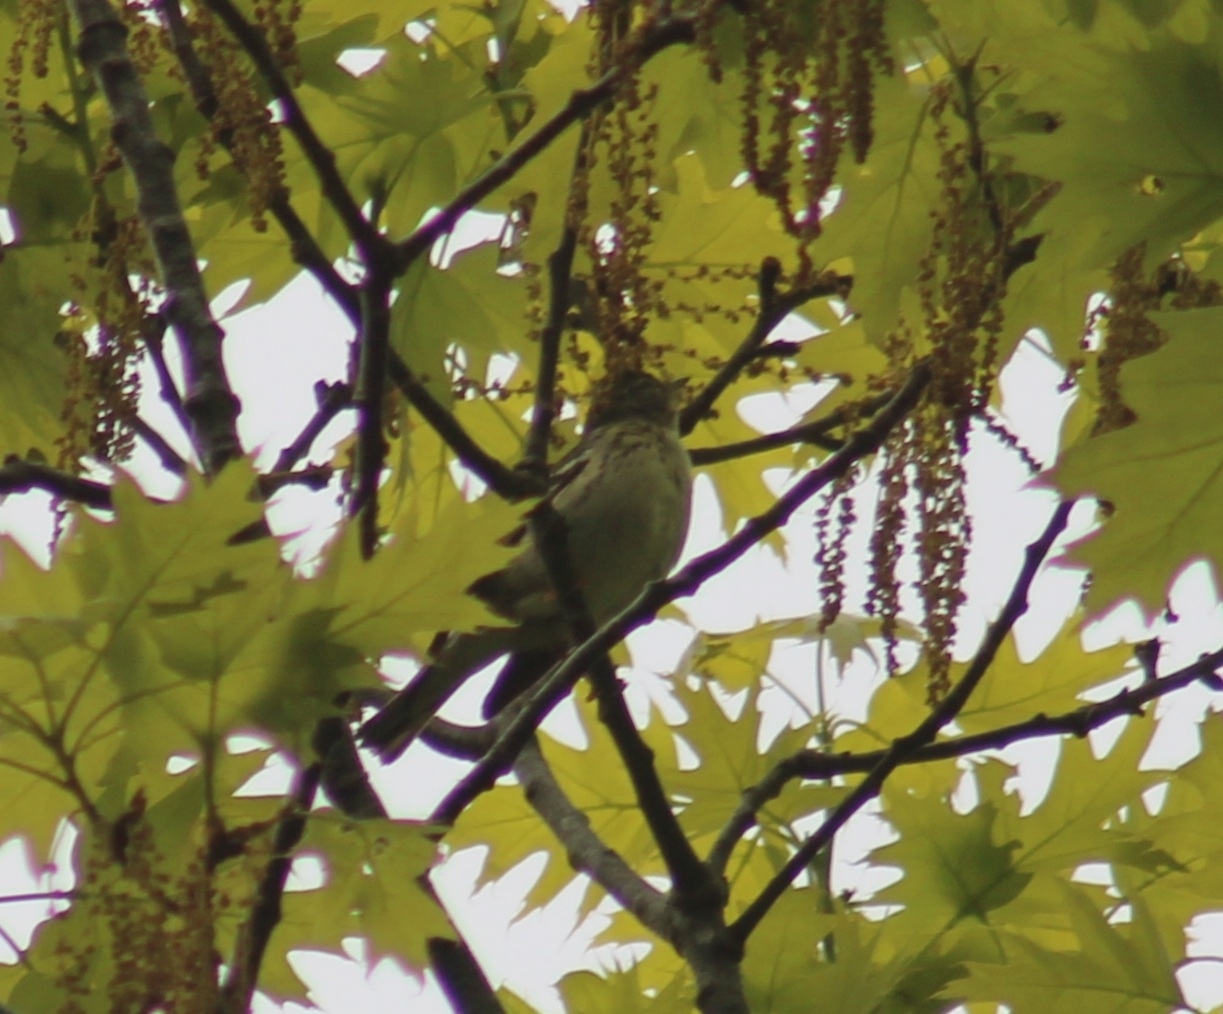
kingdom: Animalia
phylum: Chordata
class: Aves
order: Passeriformes
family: Parulidae
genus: Setophaga
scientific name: Setophaga striata
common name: Blackpoll warbler
